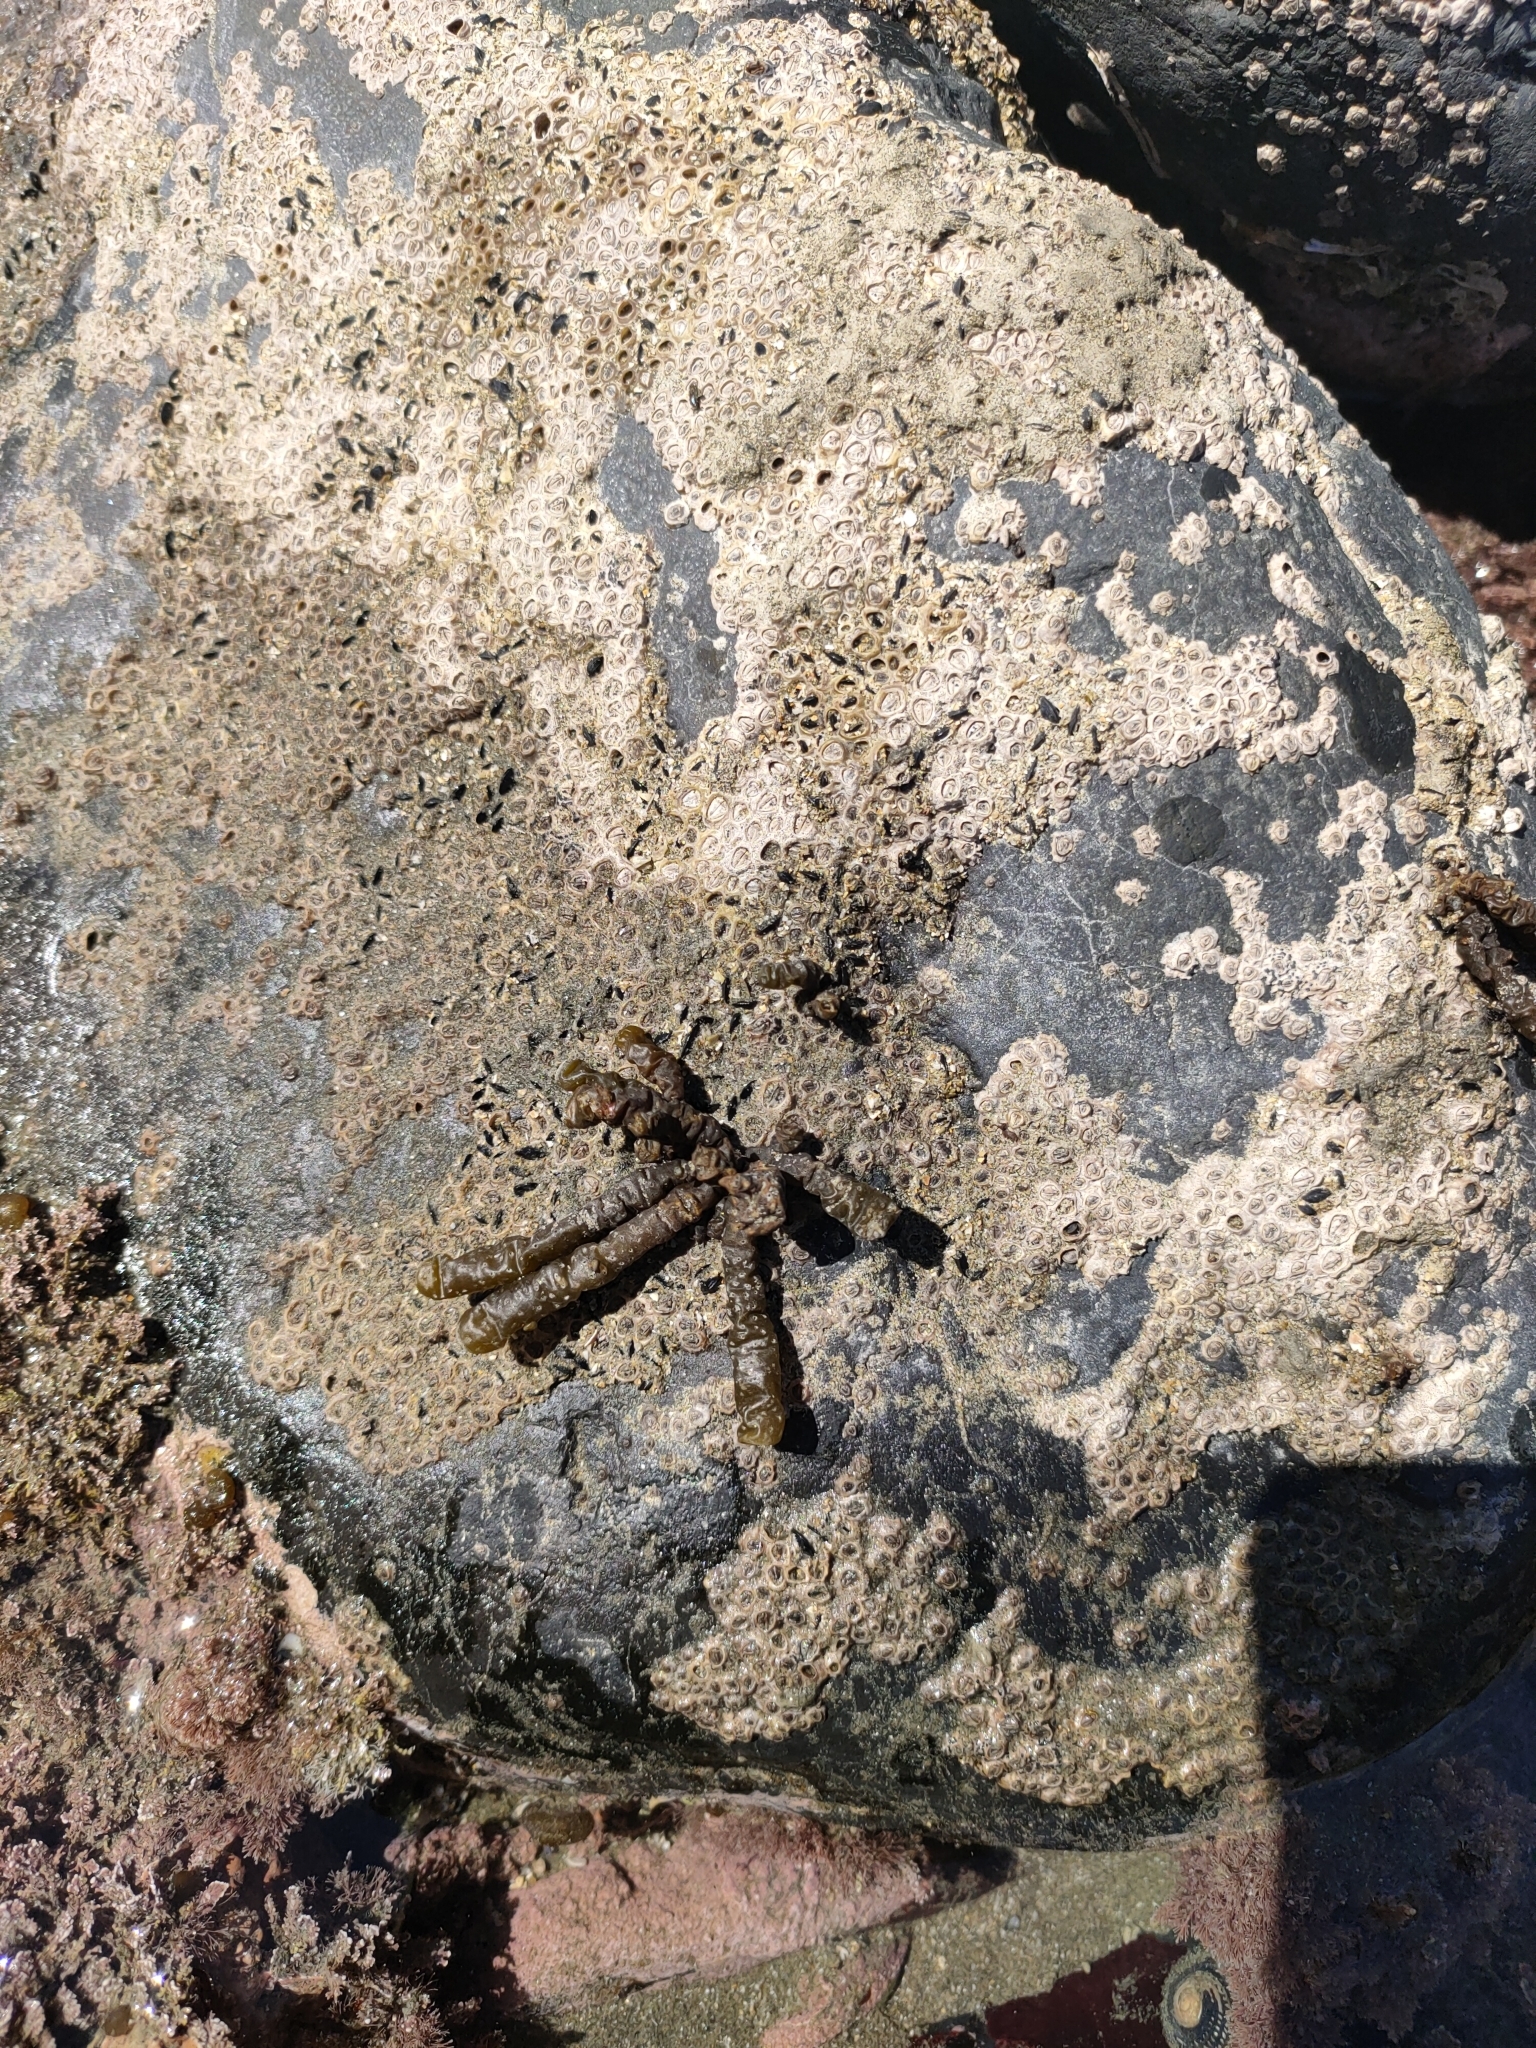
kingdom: Chromista
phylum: Ochrophyta
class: Phaeophyceae
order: Scytothamnales
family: Splachnidiaceae
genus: Splachnidium
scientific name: Splachnidium rugosum
